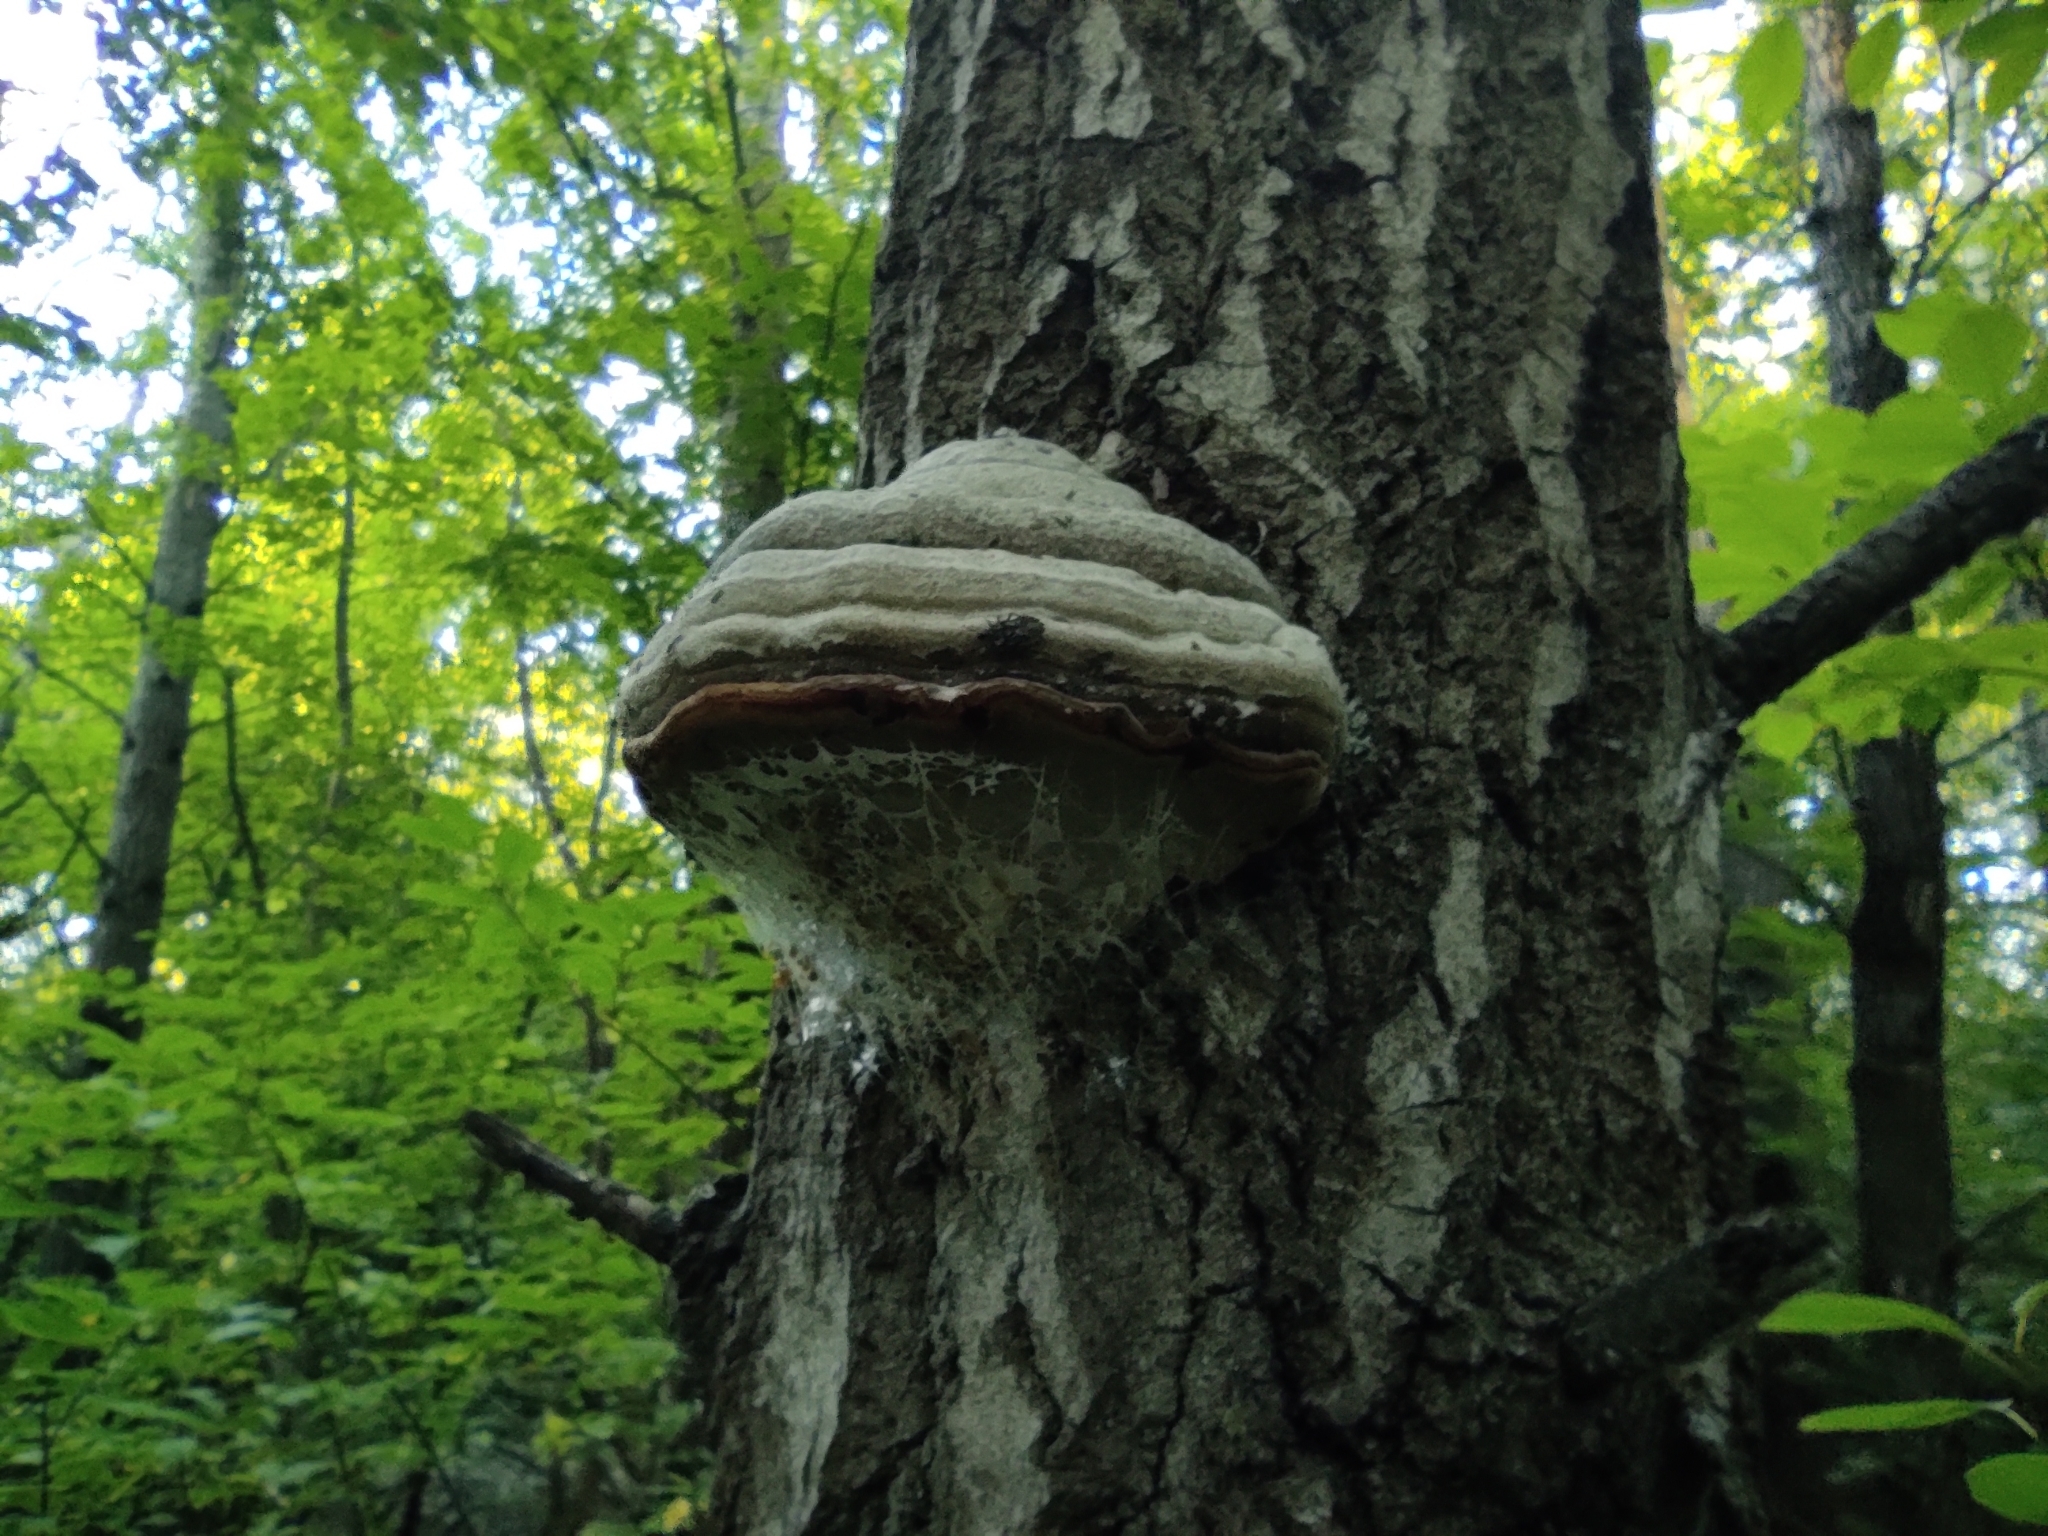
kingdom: Fungi
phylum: Basidiomycota
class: Agaricomycetes
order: Polyporales
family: Polyporaceae
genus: Fomes
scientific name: Fomes fomentarius
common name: Hoof fungus
